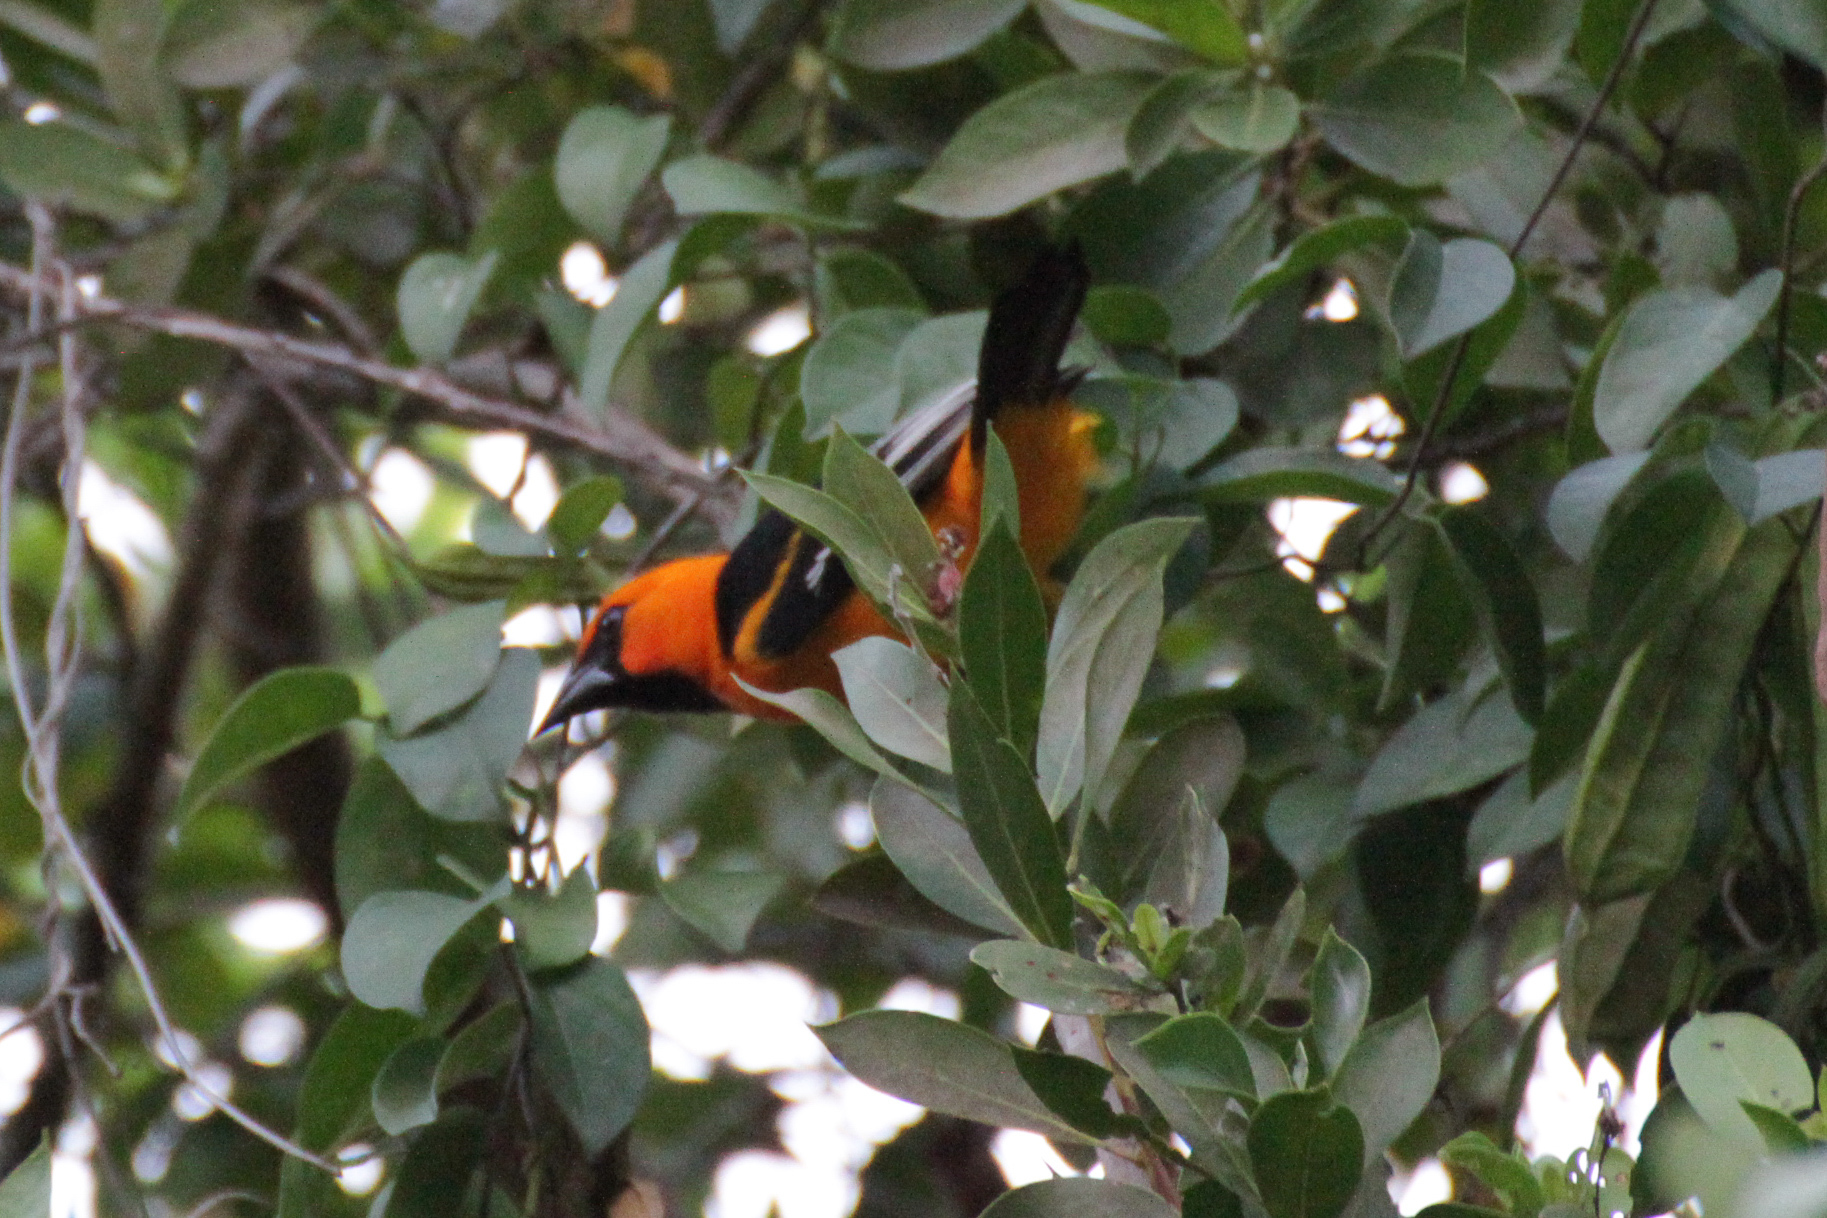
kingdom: Animalia
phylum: Chordata
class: Aves
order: Passeriformes
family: Icteridae
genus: Icterus
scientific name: Icterus gularis
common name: Altamira oriole
